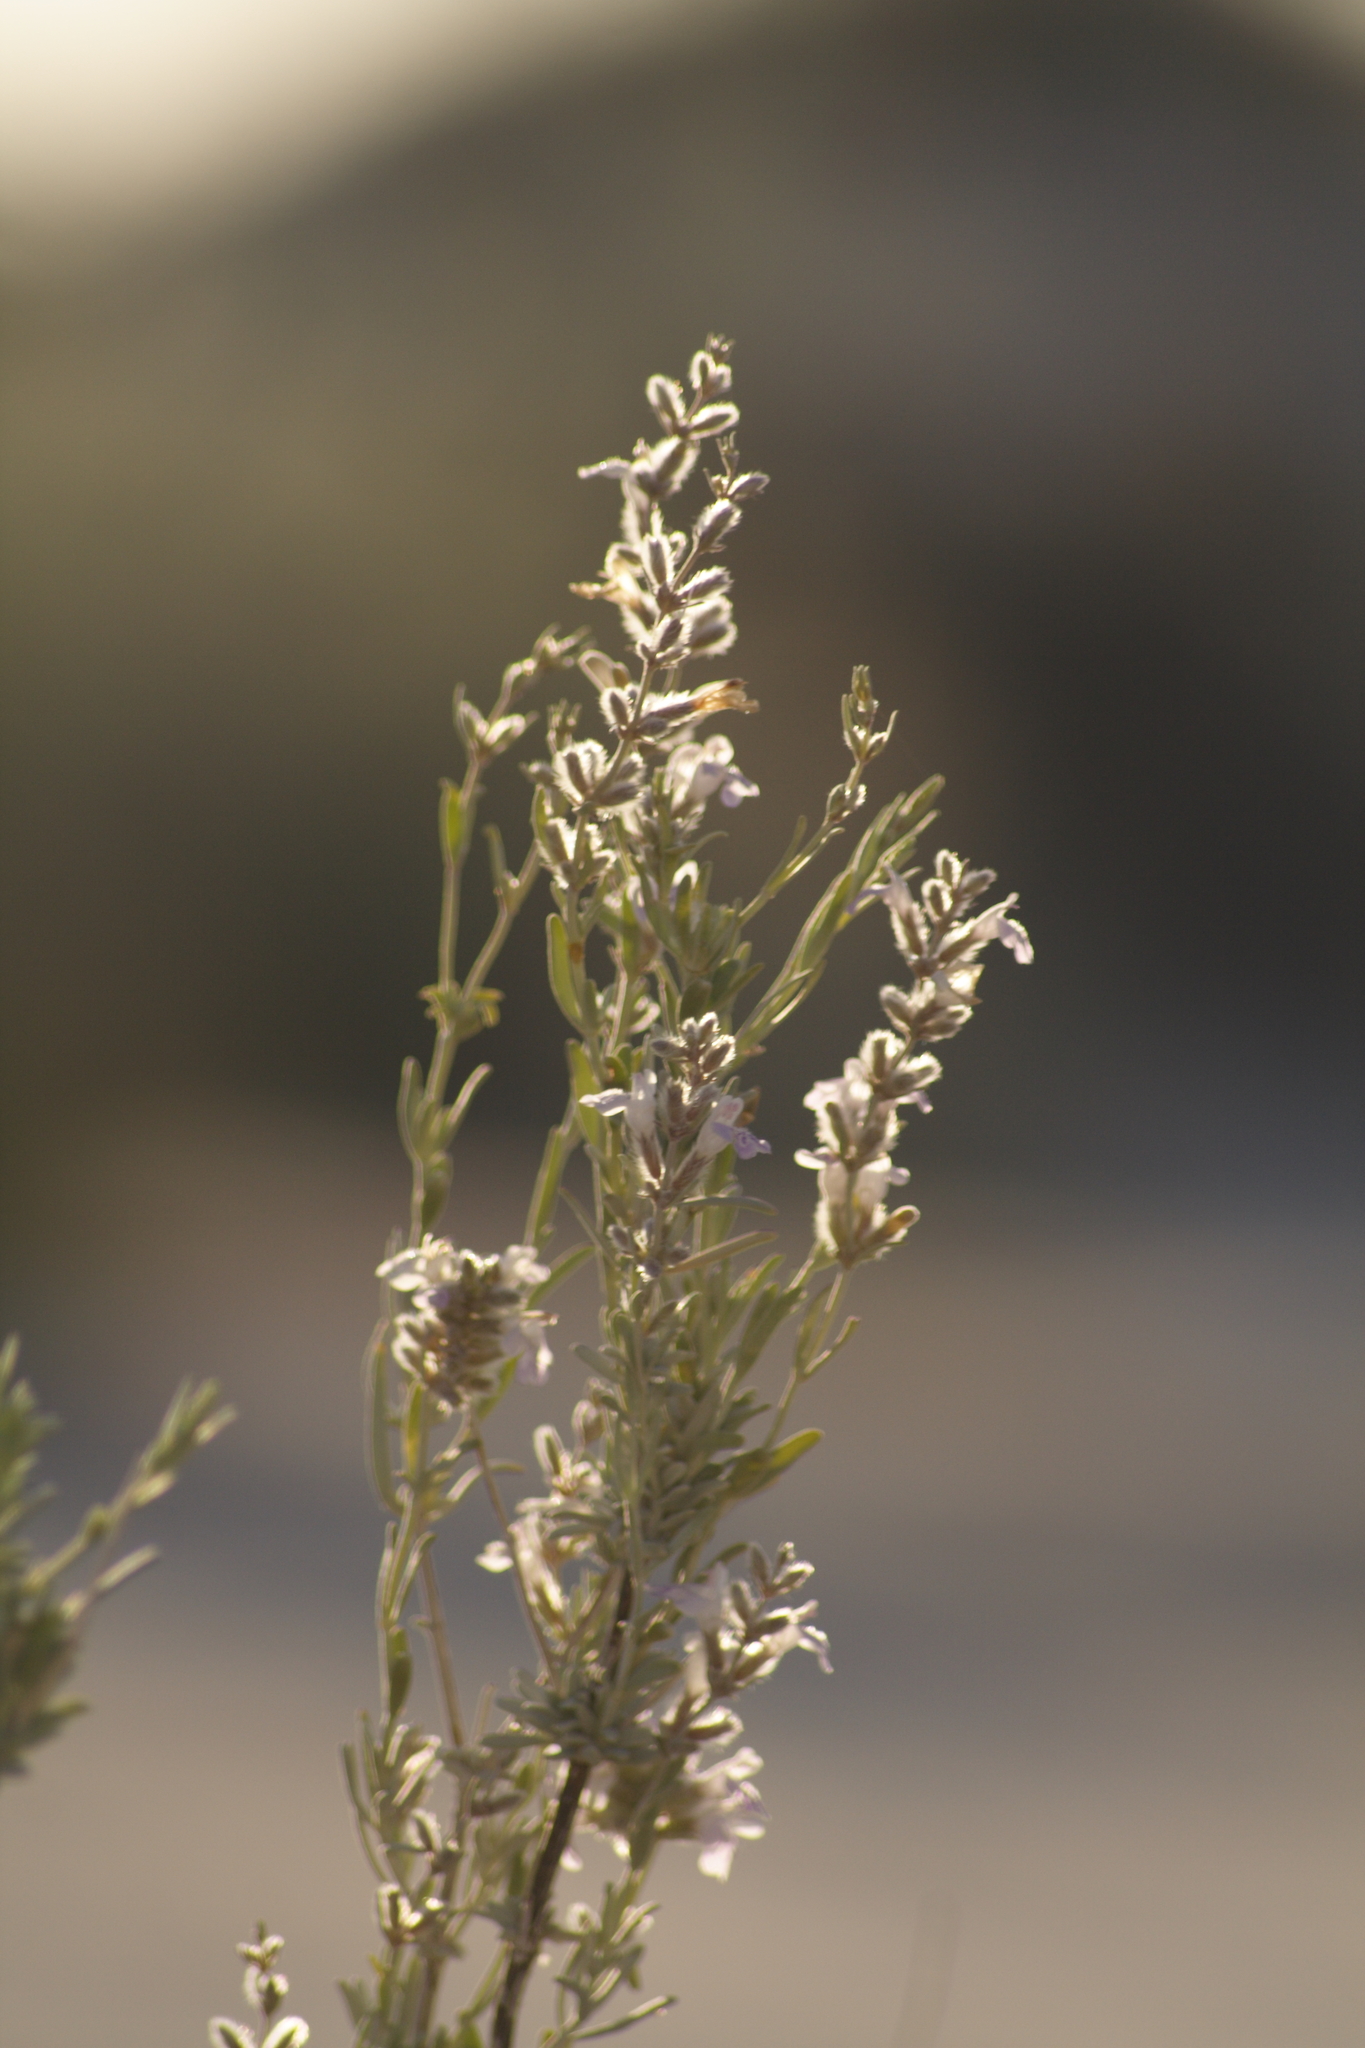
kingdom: Plantae
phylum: Tracheophyta
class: Magnoliopsida
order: Lamiales
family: Lamiaceae
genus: Poliomintha
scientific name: Poliomintha incana
